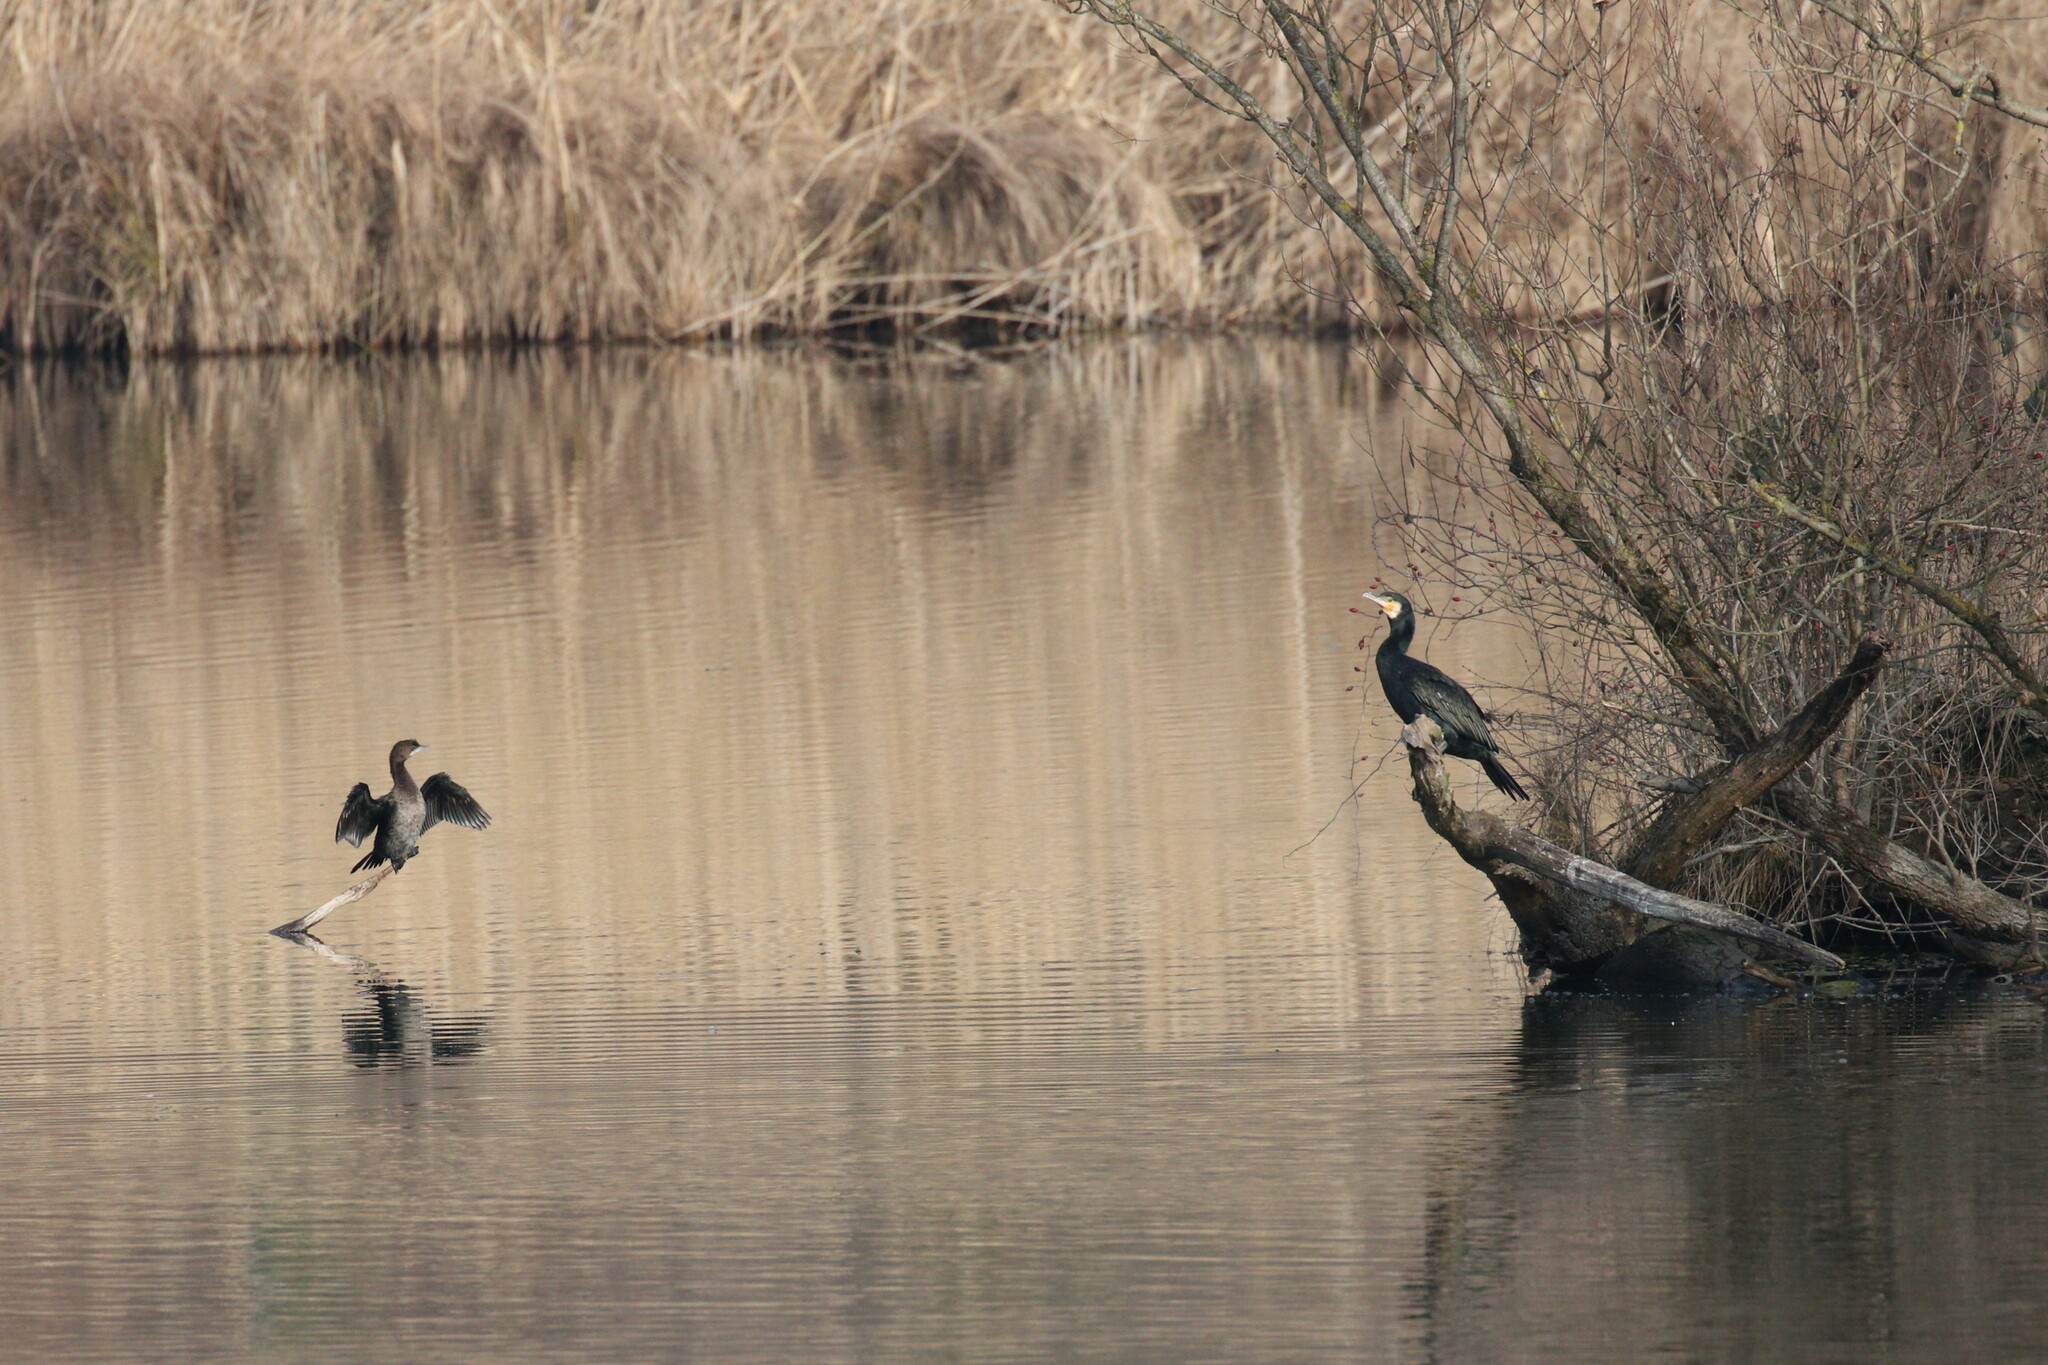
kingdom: Animalia
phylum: Chordata
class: Aves
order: Suliformes
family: Phalacrocoracidae
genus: Microcarbo
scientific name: Microcarbo pygmaeus
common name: Pygmy cormorant
